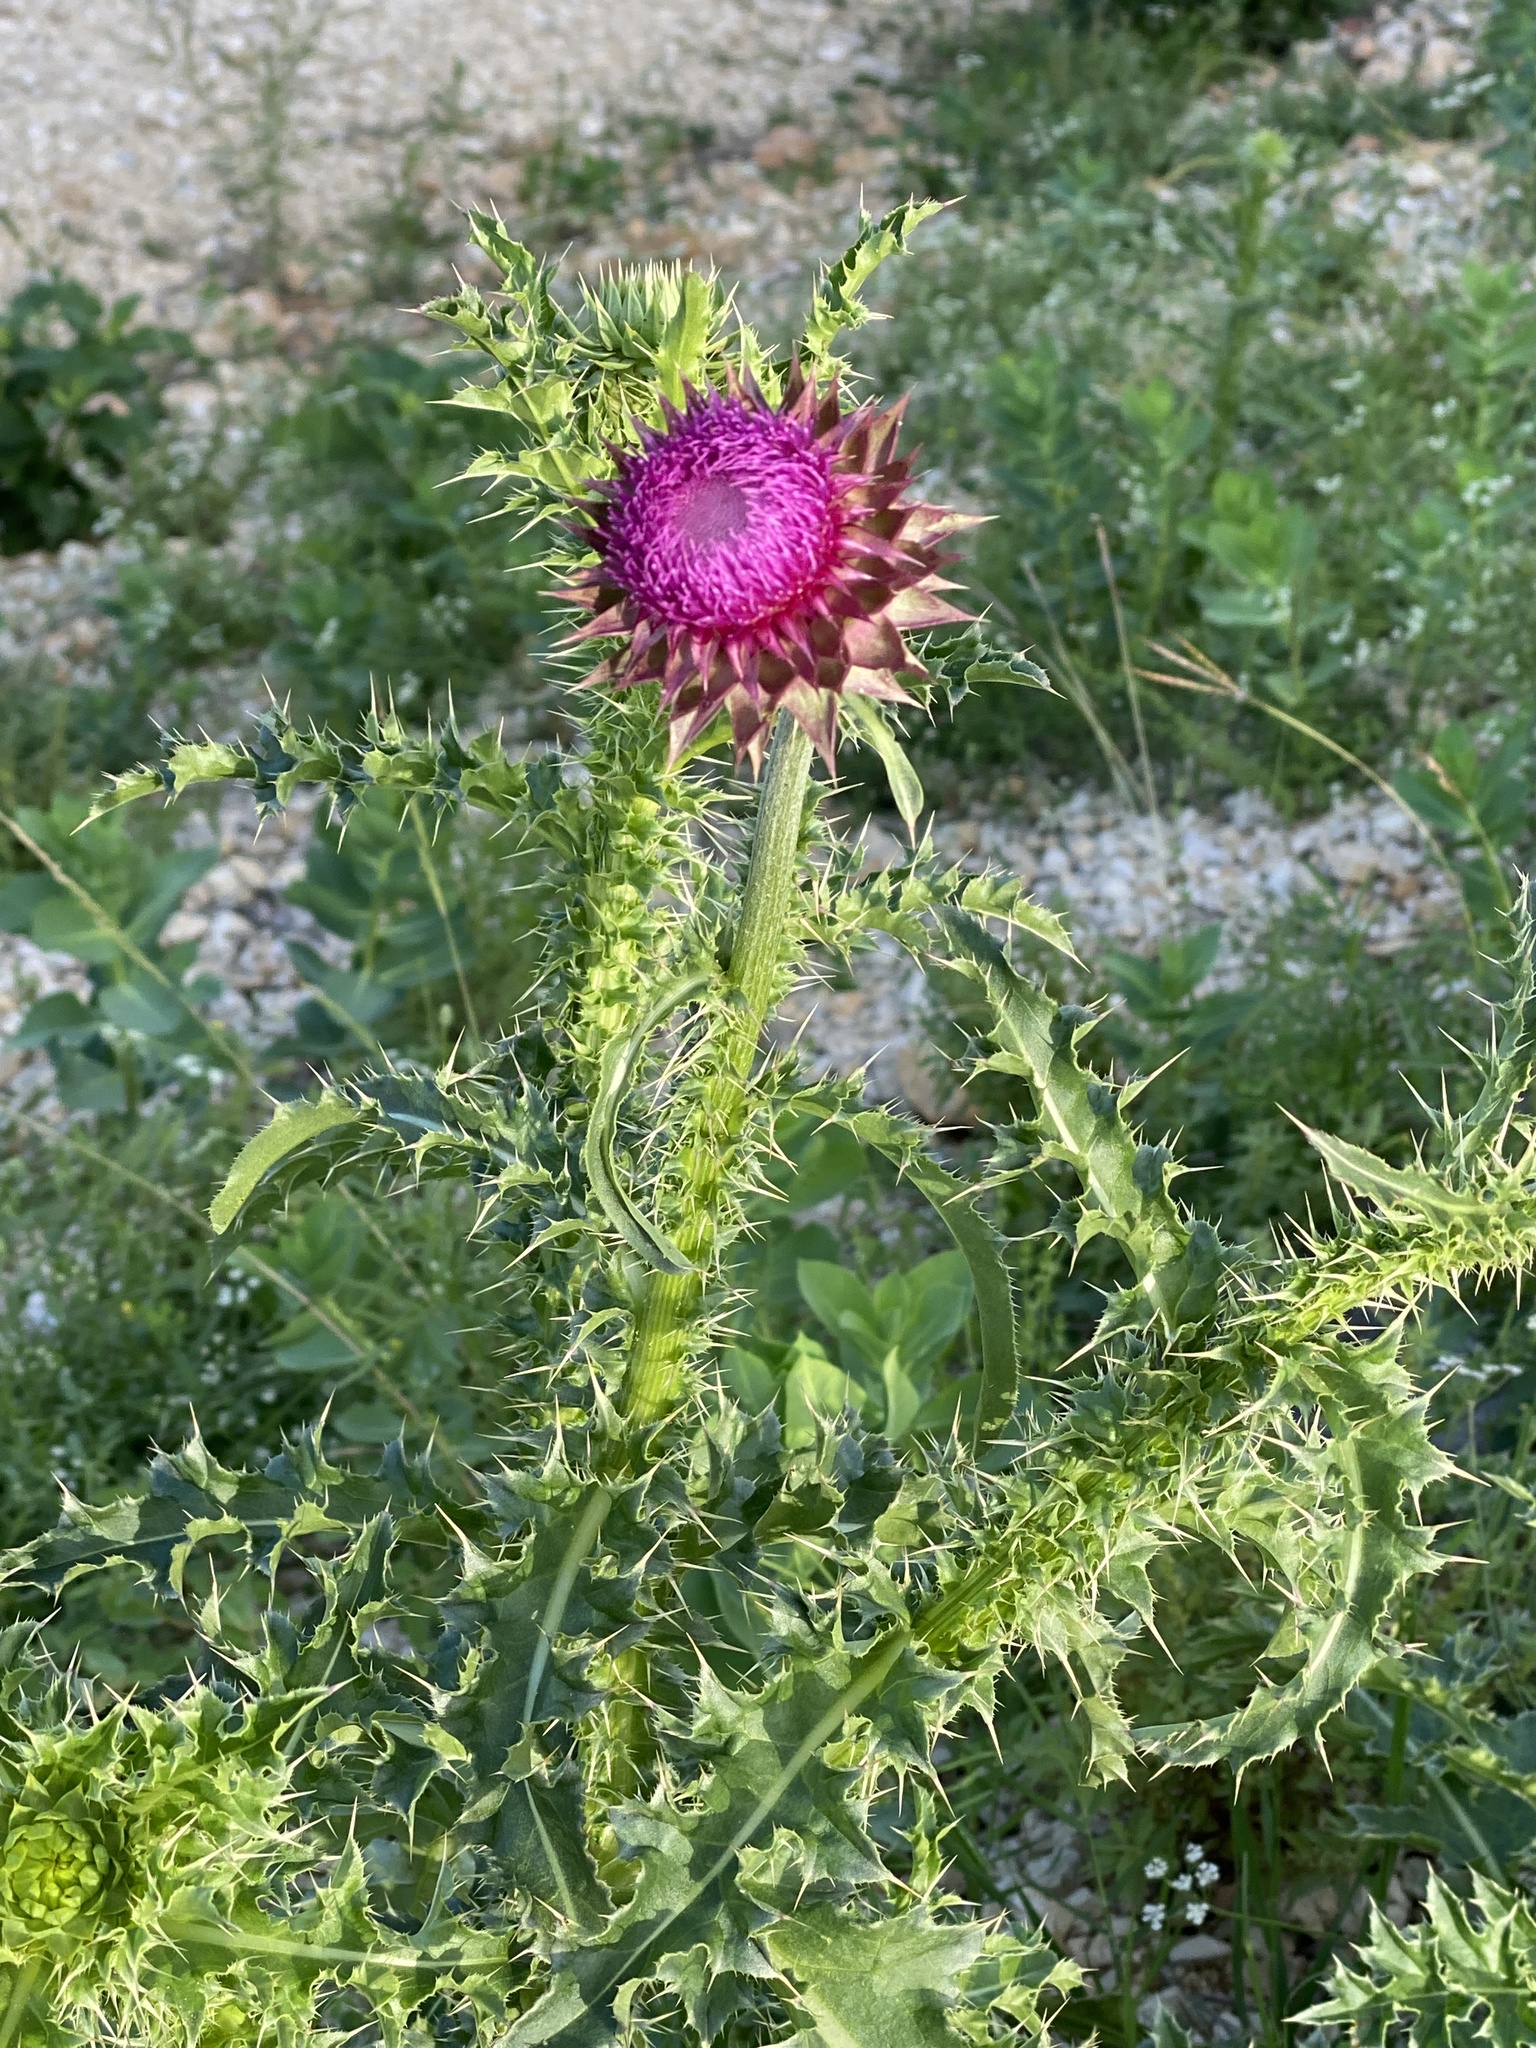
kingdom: Plantae
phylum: Tracheophyta
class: Magnoliopsida
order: Asterales
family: Asteraceae
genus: Carduus
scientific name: Carduus nutans
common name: Musk thistle
